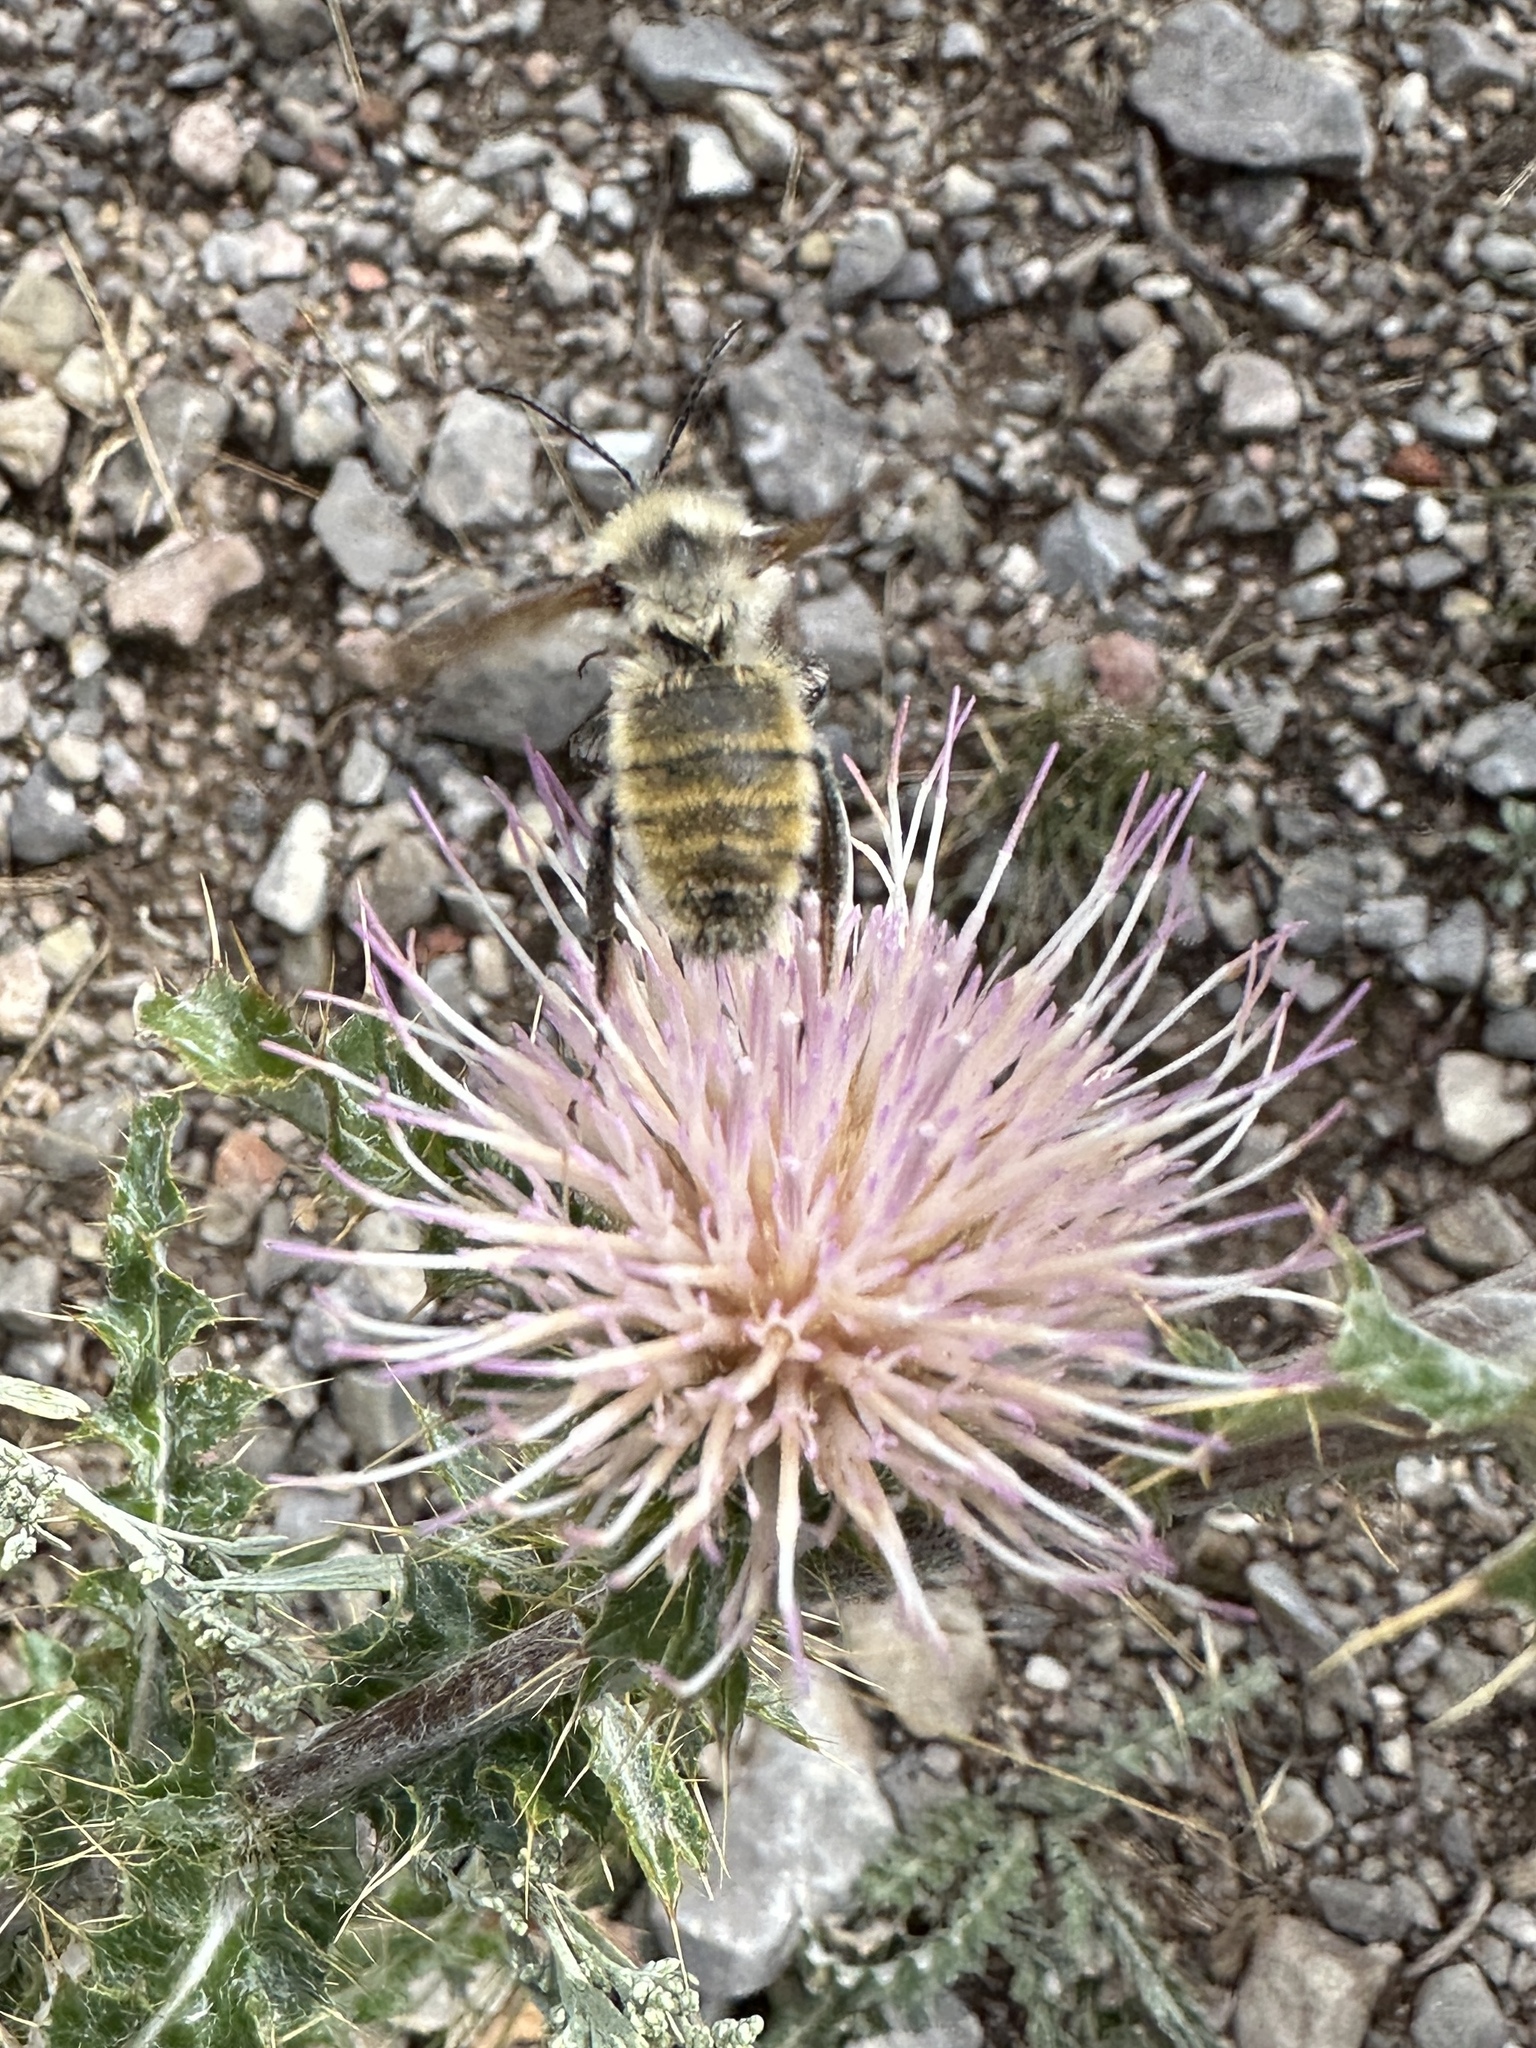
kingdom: Animalia
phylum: Arthropoda
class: Insecta
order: Hymenoptera
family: Apidae
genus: Bombus
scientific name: Bombus appositus
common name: White-shouldered bumble bee
